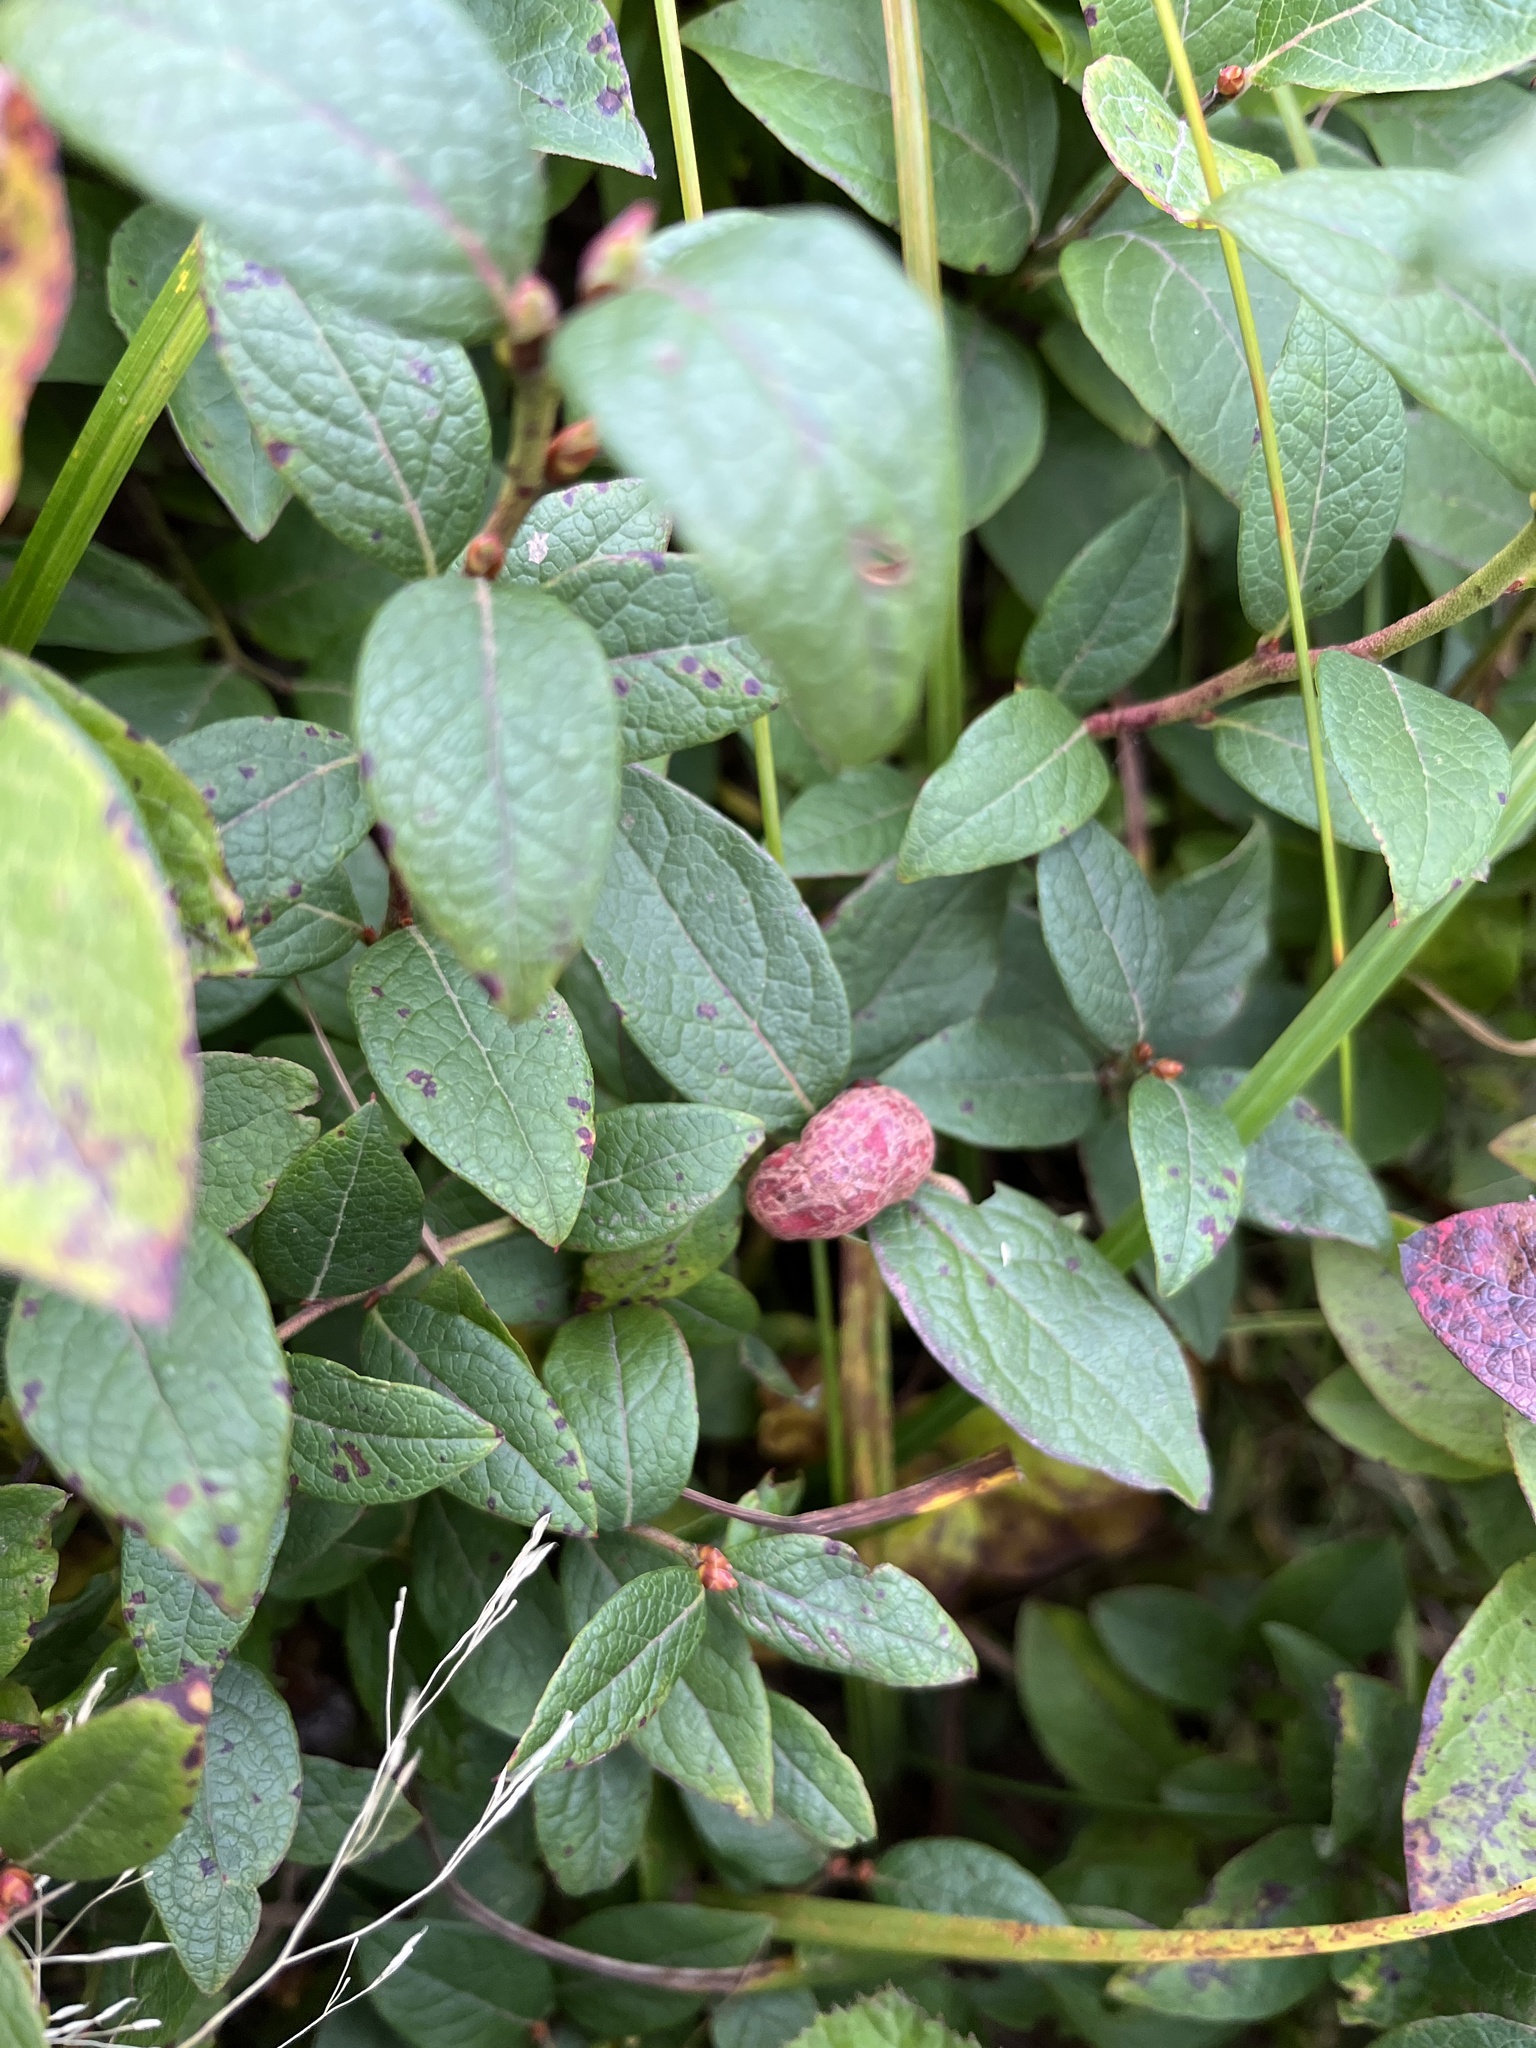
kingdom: Animalia
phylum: Arthropoda
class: Insecta
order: Hymenoptera
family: Pteromalidae
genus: Hemadas
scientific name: Hemadas nubilipennis
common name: Blueberry stem gall wasp
